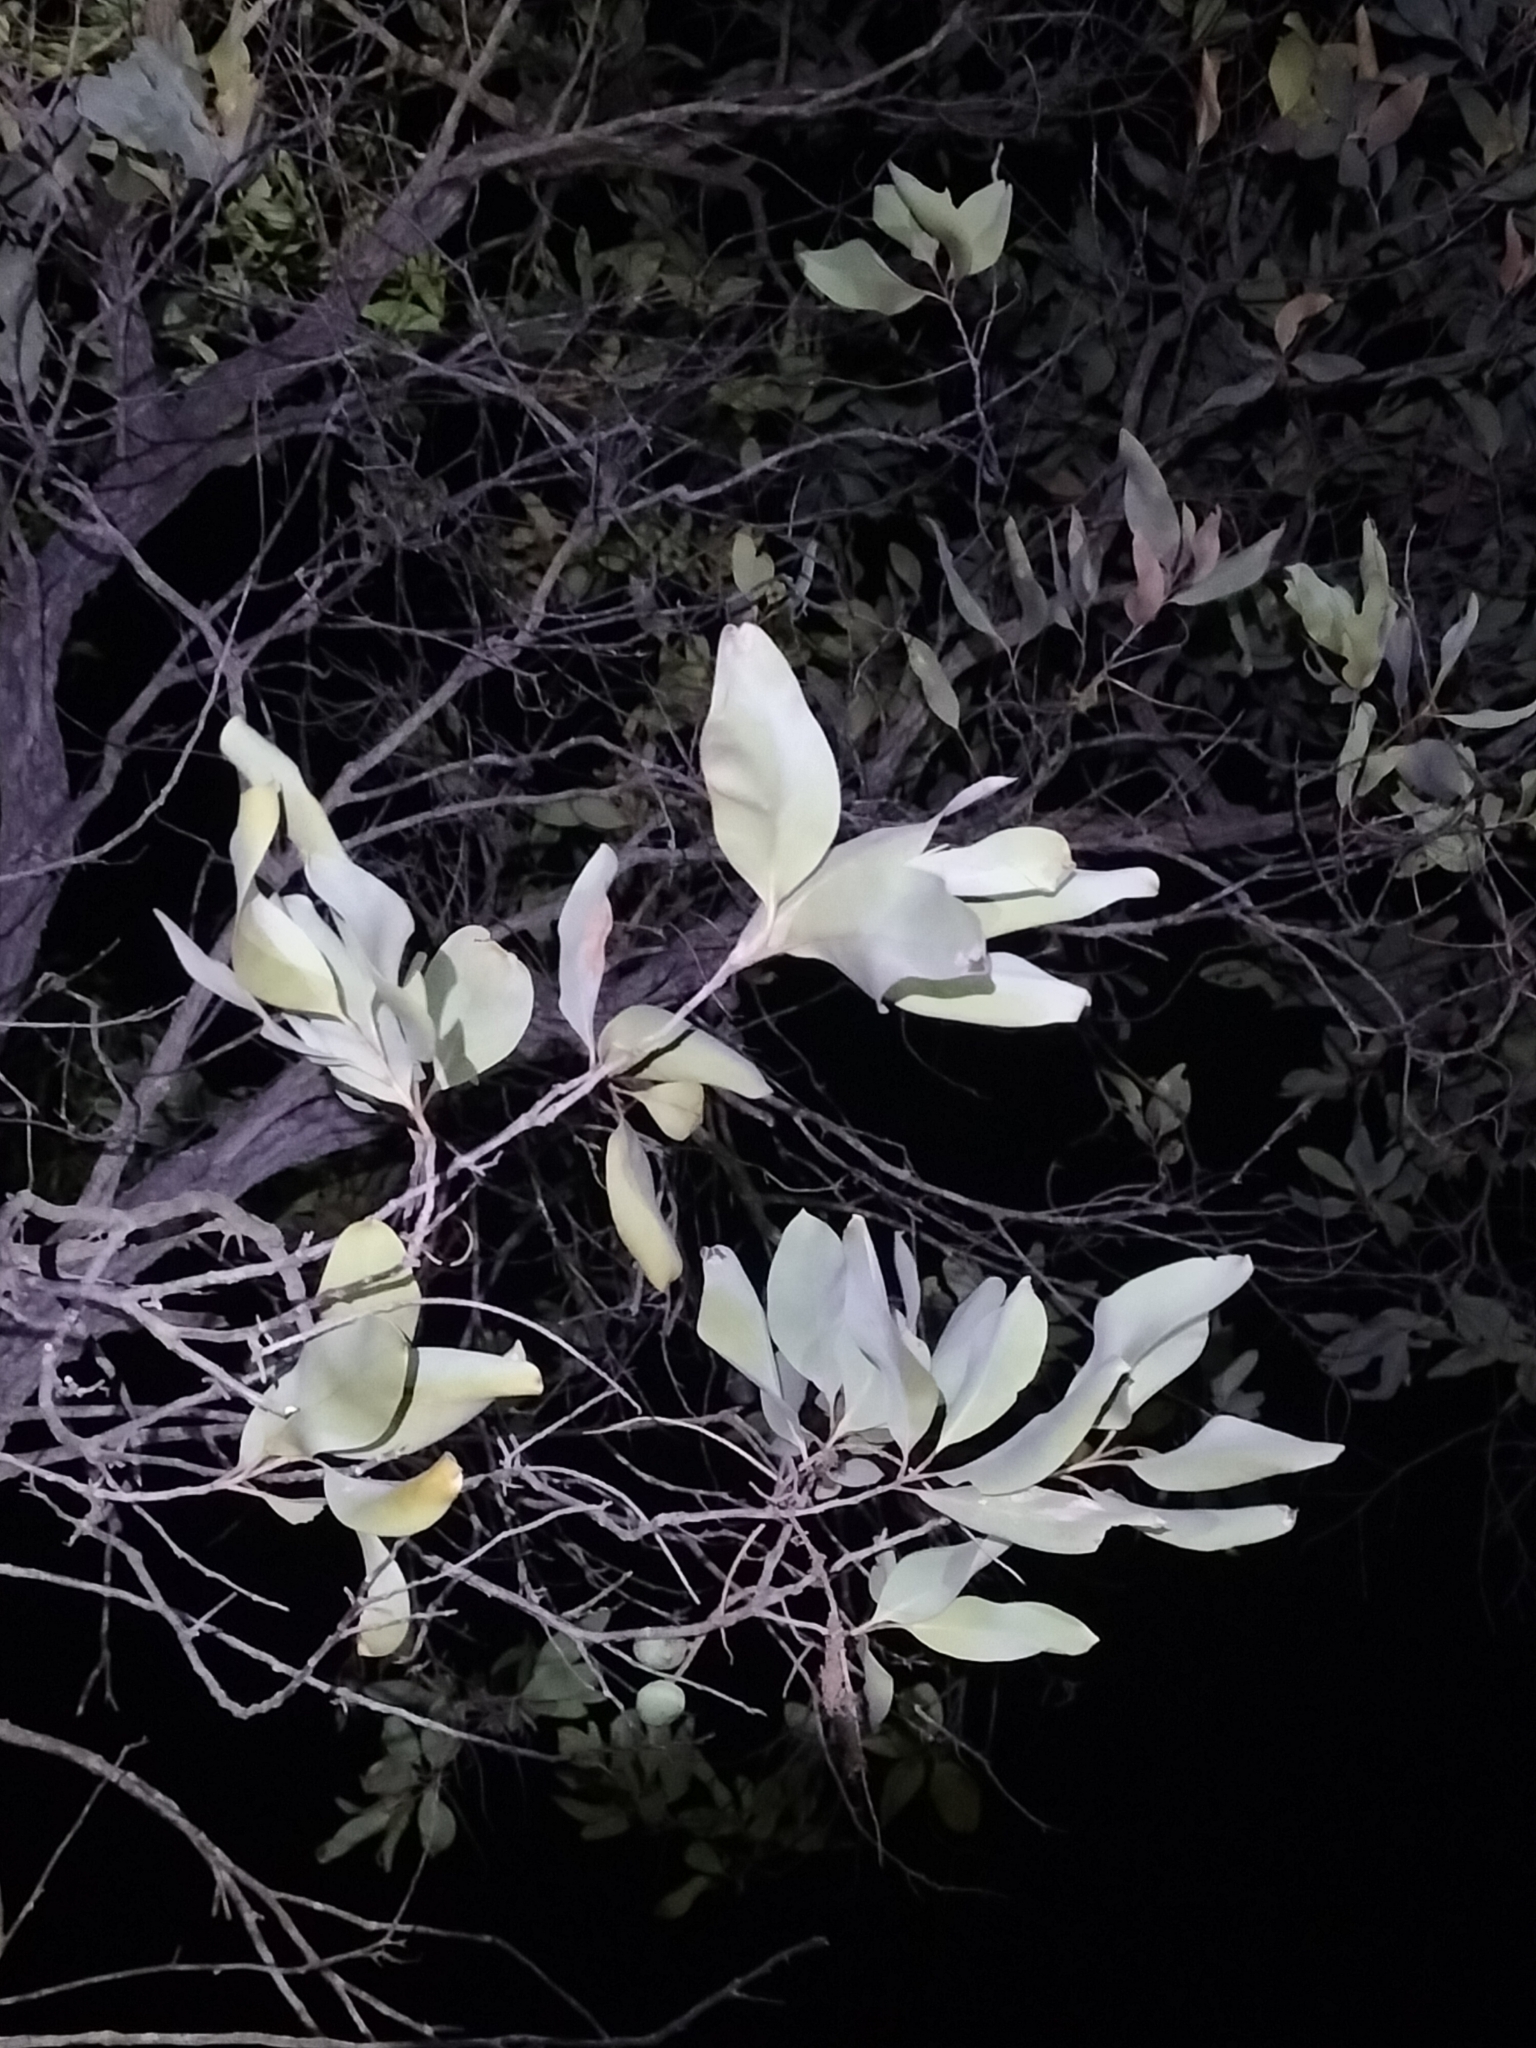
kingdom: Plantae
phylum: Tracheophyta
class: Magnoliopsida
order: Proteales
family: Proteaceae
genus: Grevillea
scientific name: Grevillea glauca
